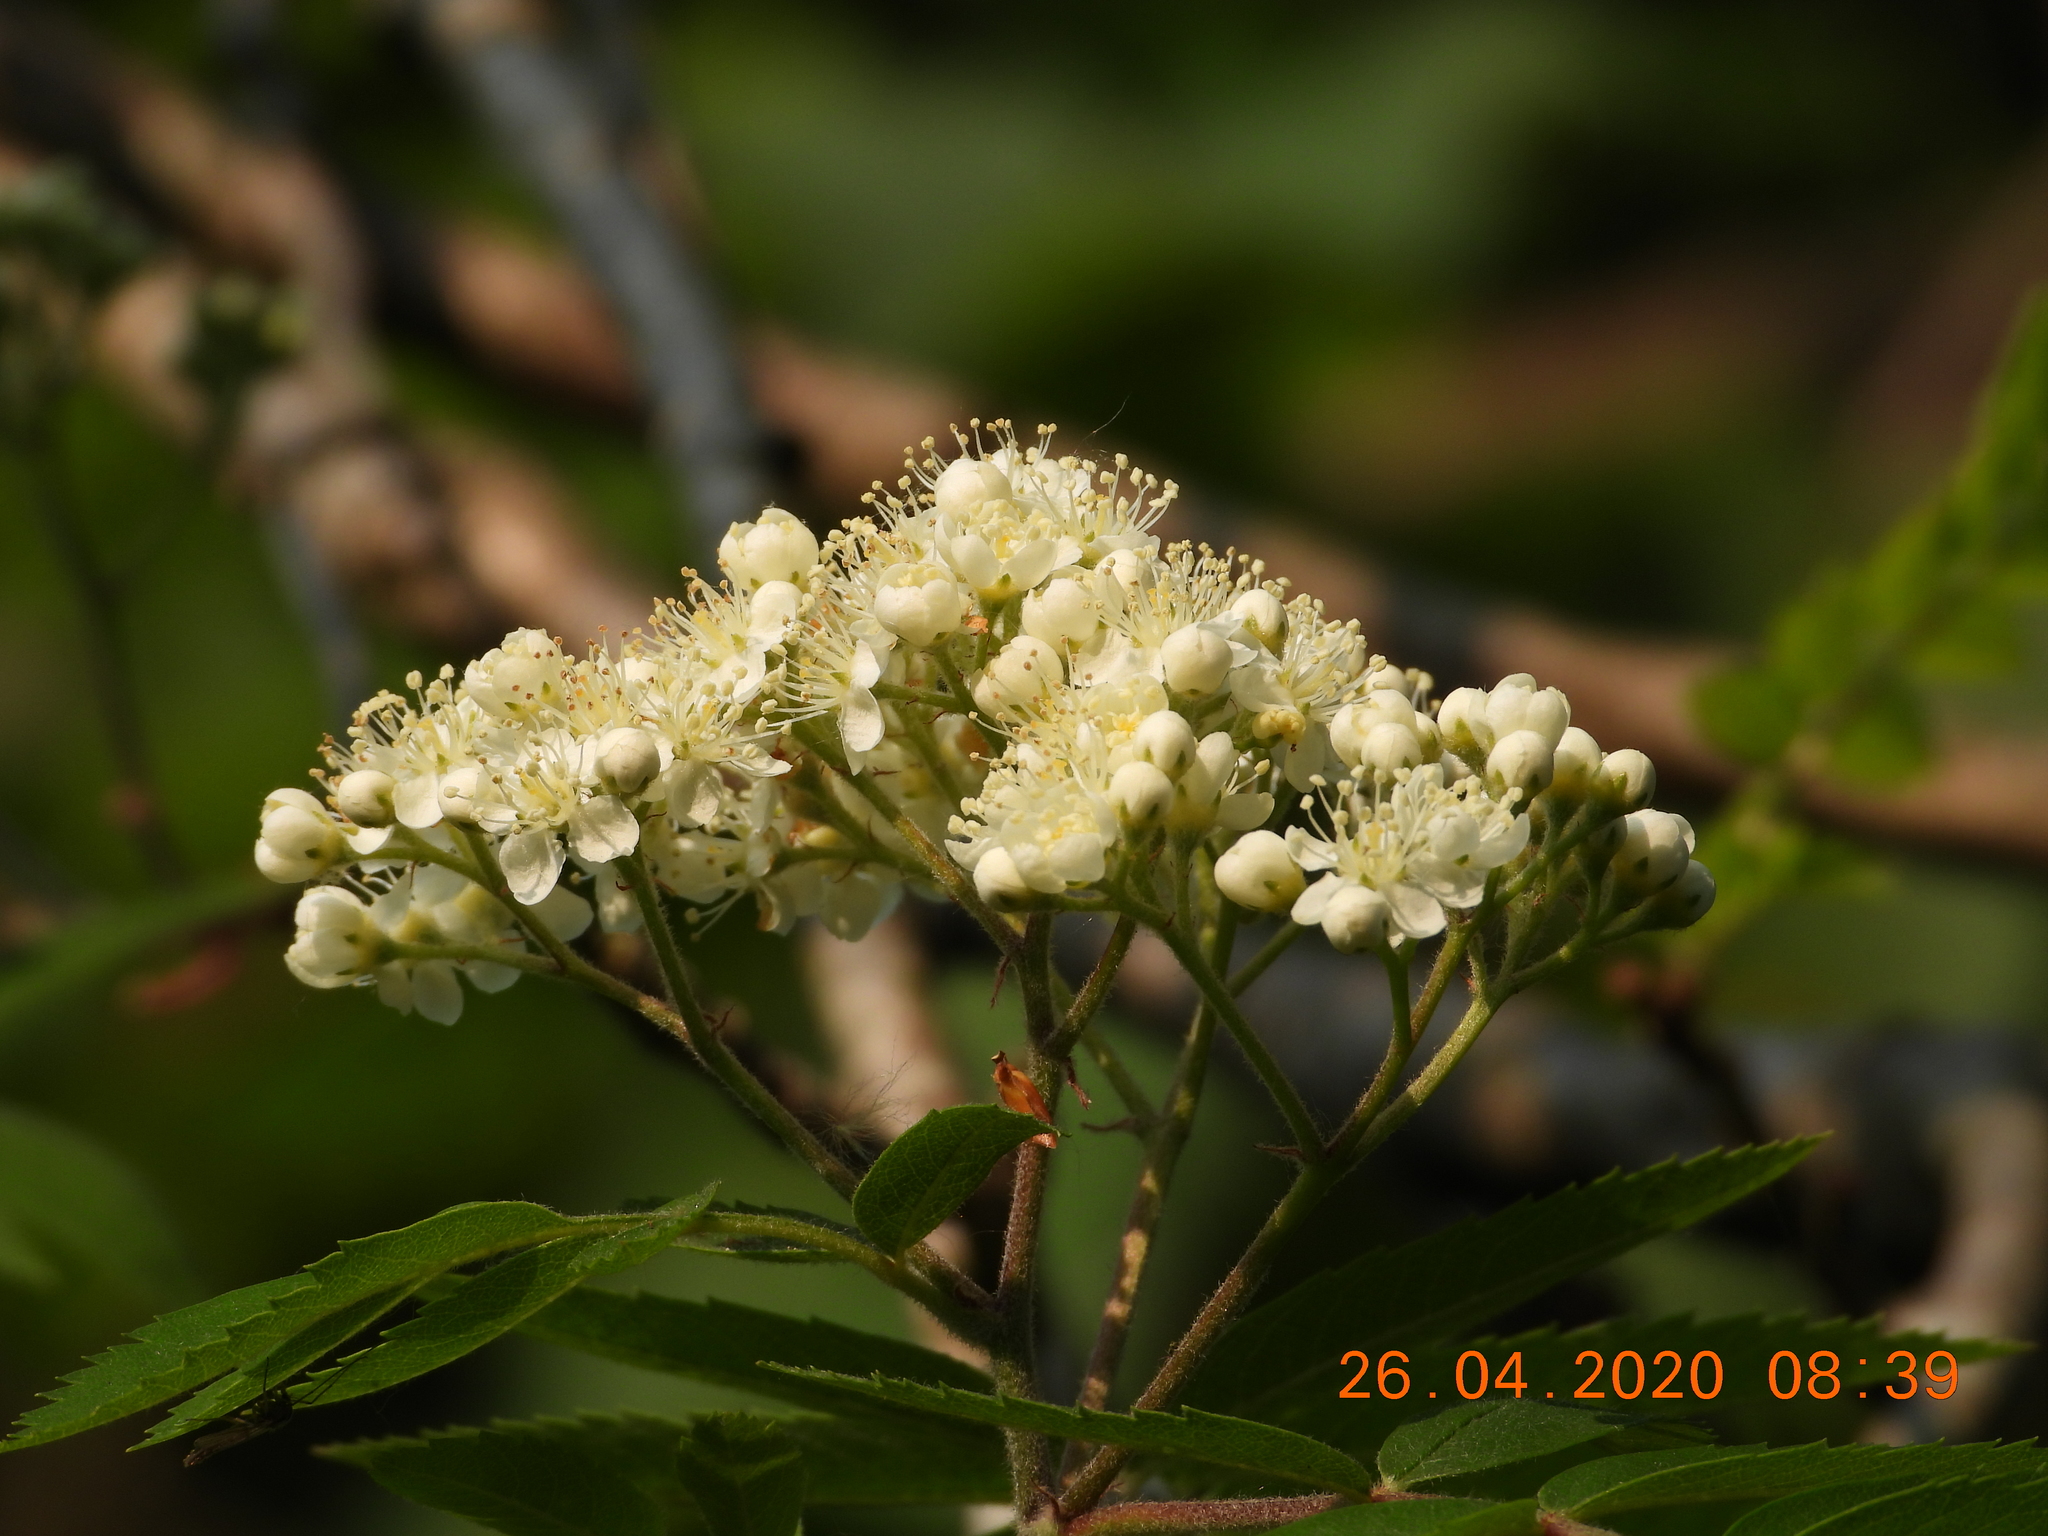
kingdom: Plantae
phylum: Tracheophyta
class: Magnoliopsida
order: Rosales
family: Rosaceae
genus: Sorbus
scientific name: Sorbus aucuparia
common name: Rowan
